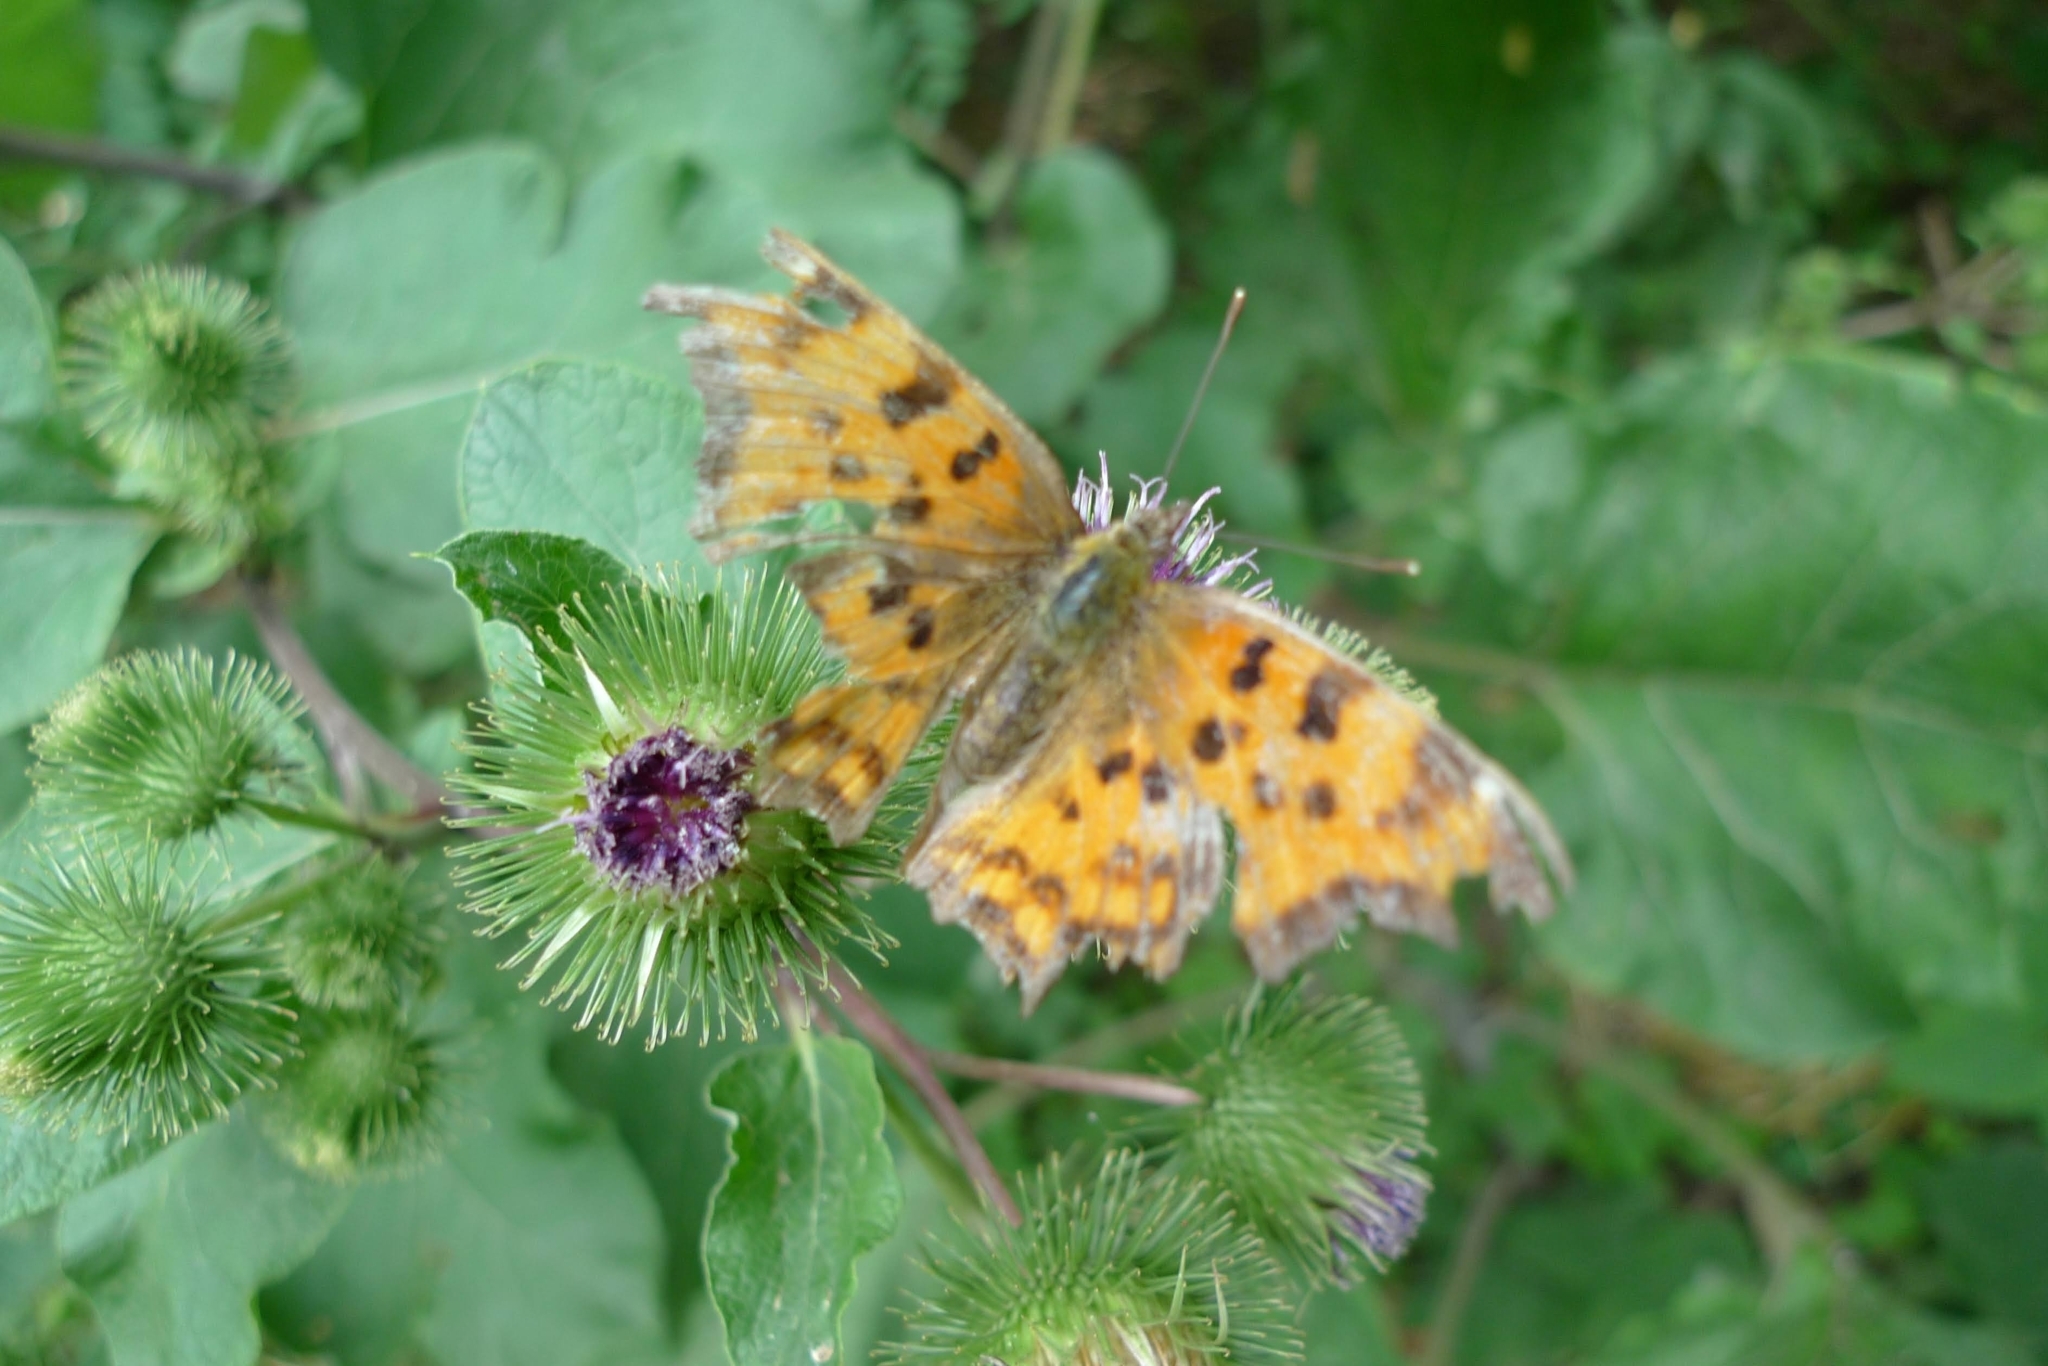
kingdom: Animalia
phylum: Arthropoda
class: Insecta
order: Lepidoptera
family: Nymphalidae
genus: Polygonia
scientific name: Polygonia c-album
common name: Comma
